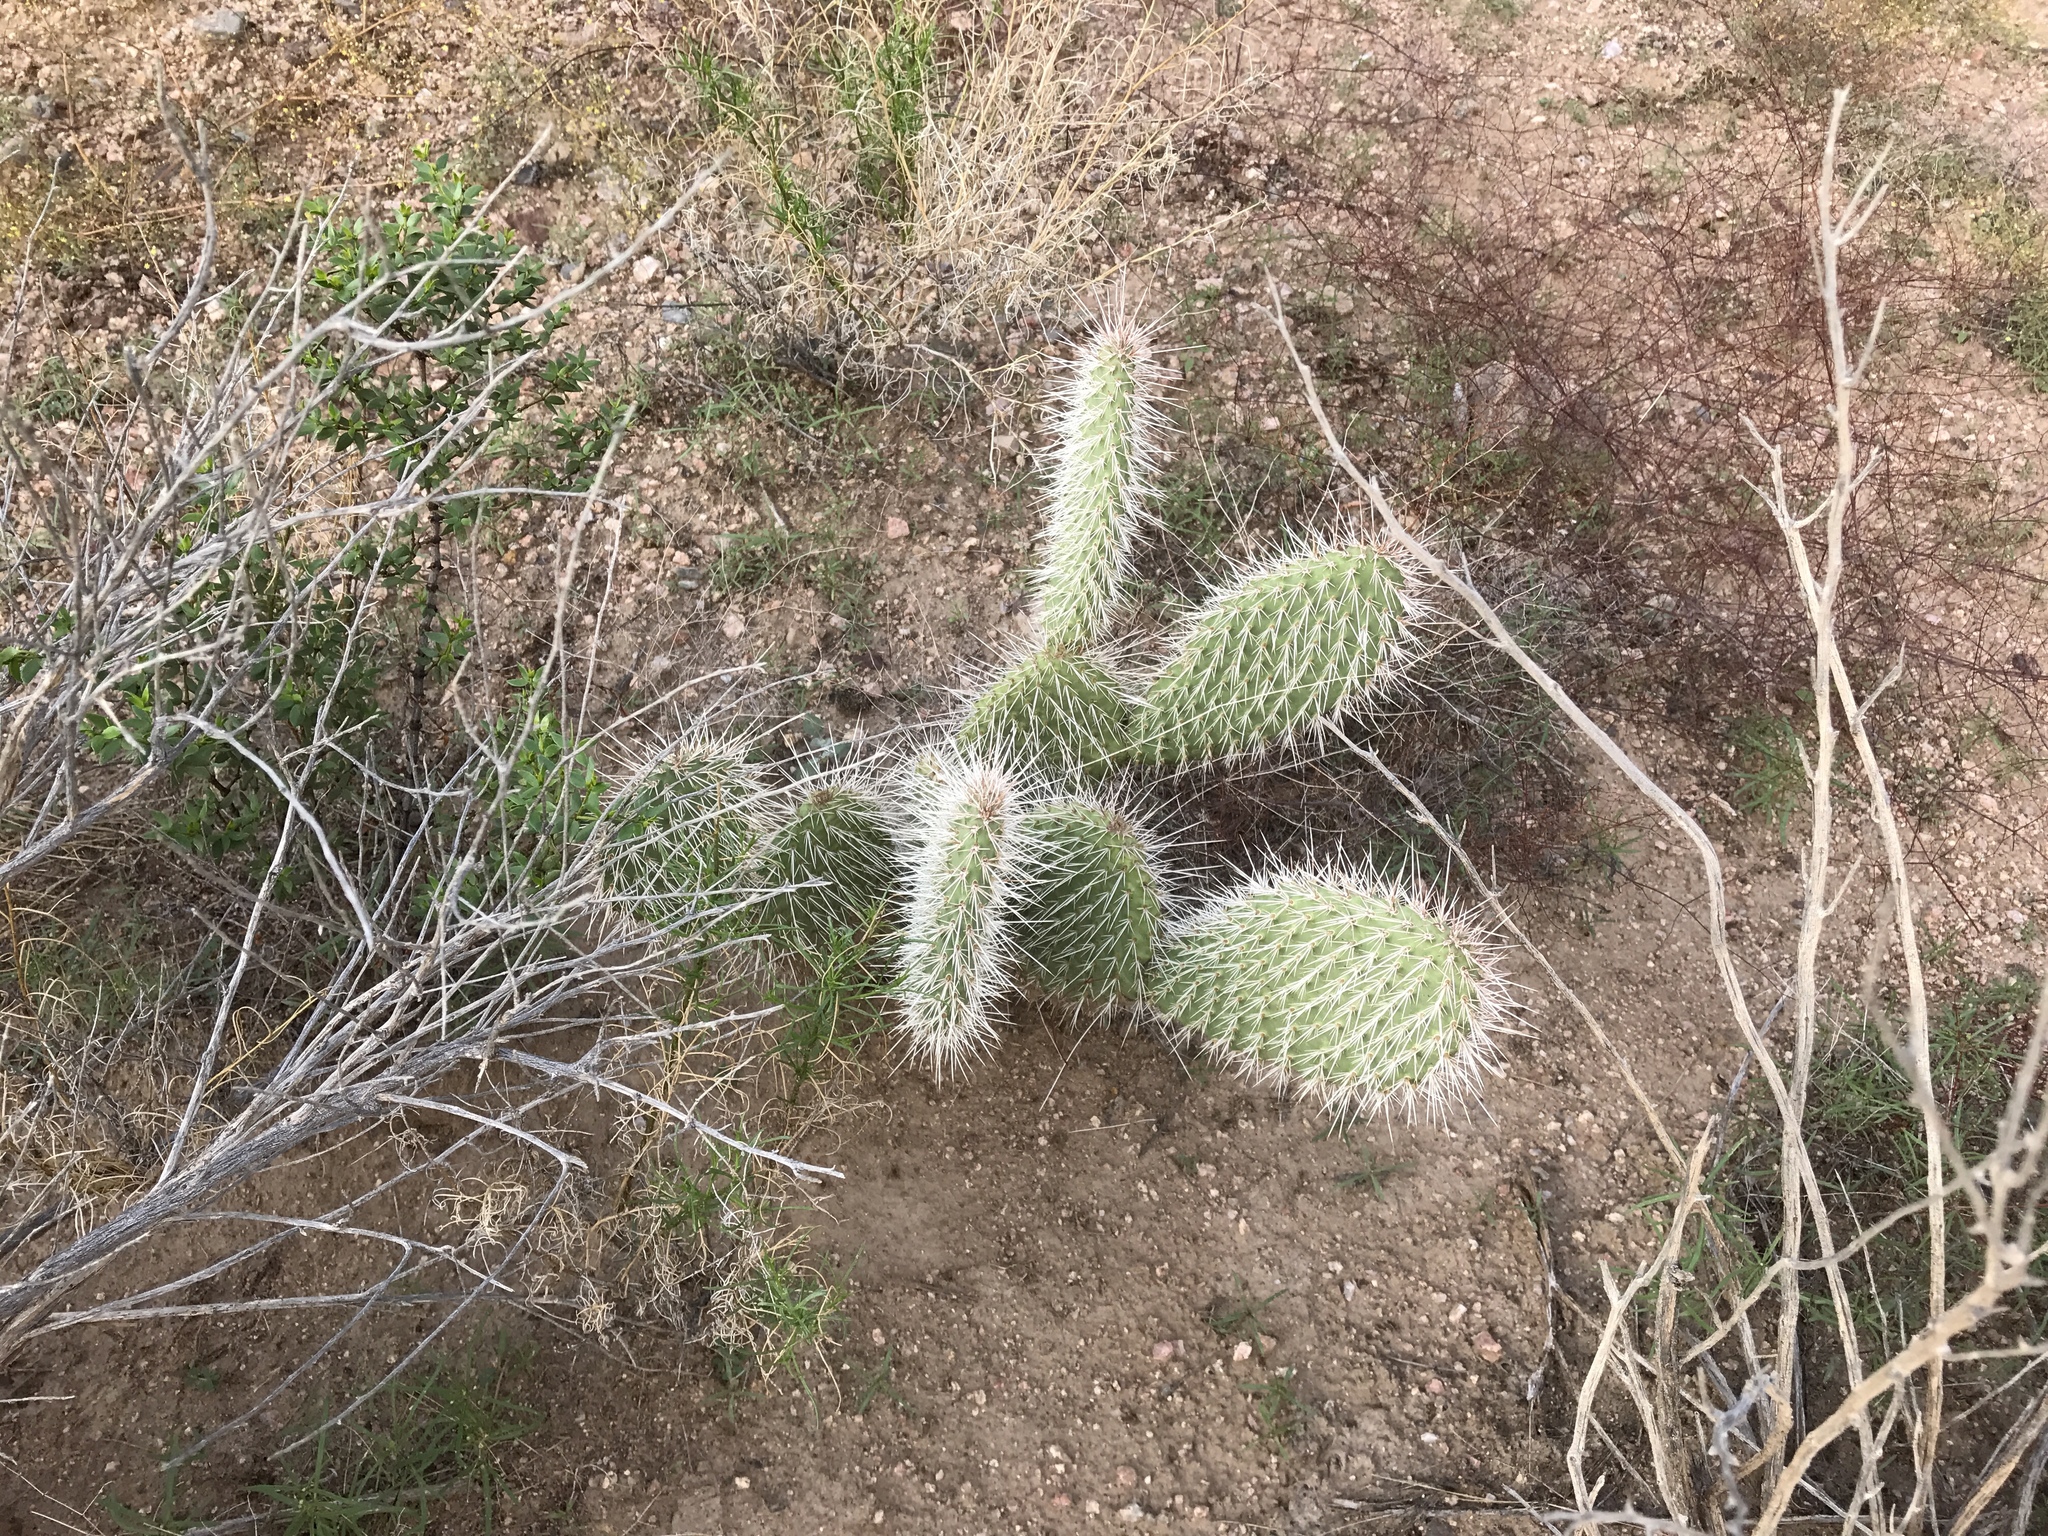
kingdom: Plantae
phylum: Tracheophyta
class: Magnoliopsida
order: Caryophyllales
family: Cactaceae
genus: Opuntia
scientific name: Opuntia polyacantha
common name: Plains prickly-pear
